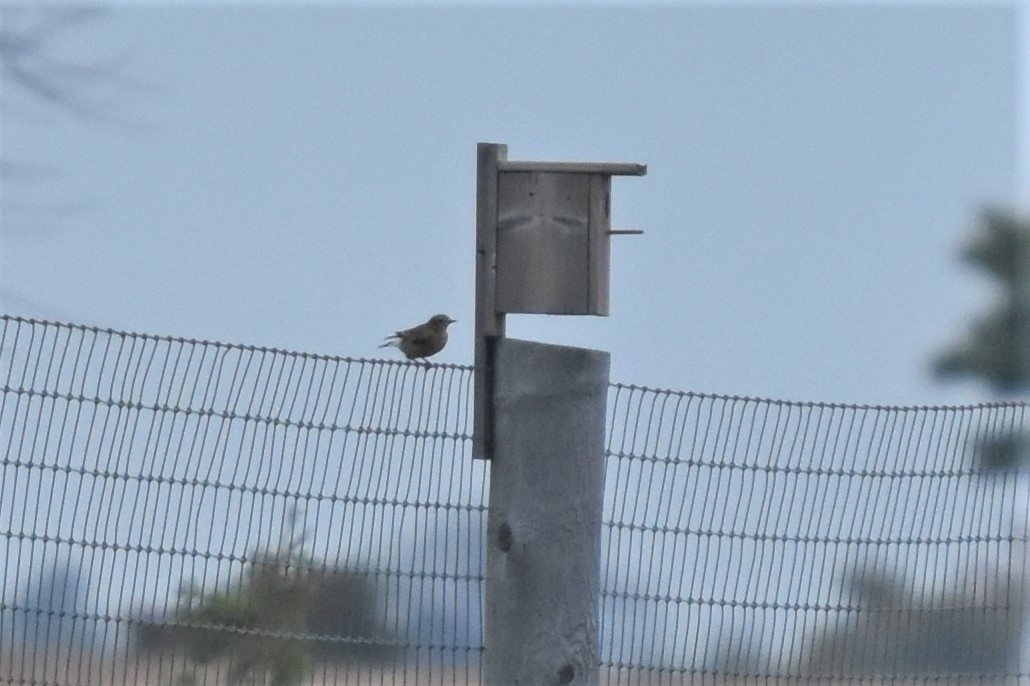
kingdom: Animalia
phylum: Chordata
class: Aves
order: Passeriformes
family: Muscicapidae
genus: Oenanthe
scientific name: Oenanthe oenanthe
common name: Northern wheatear
